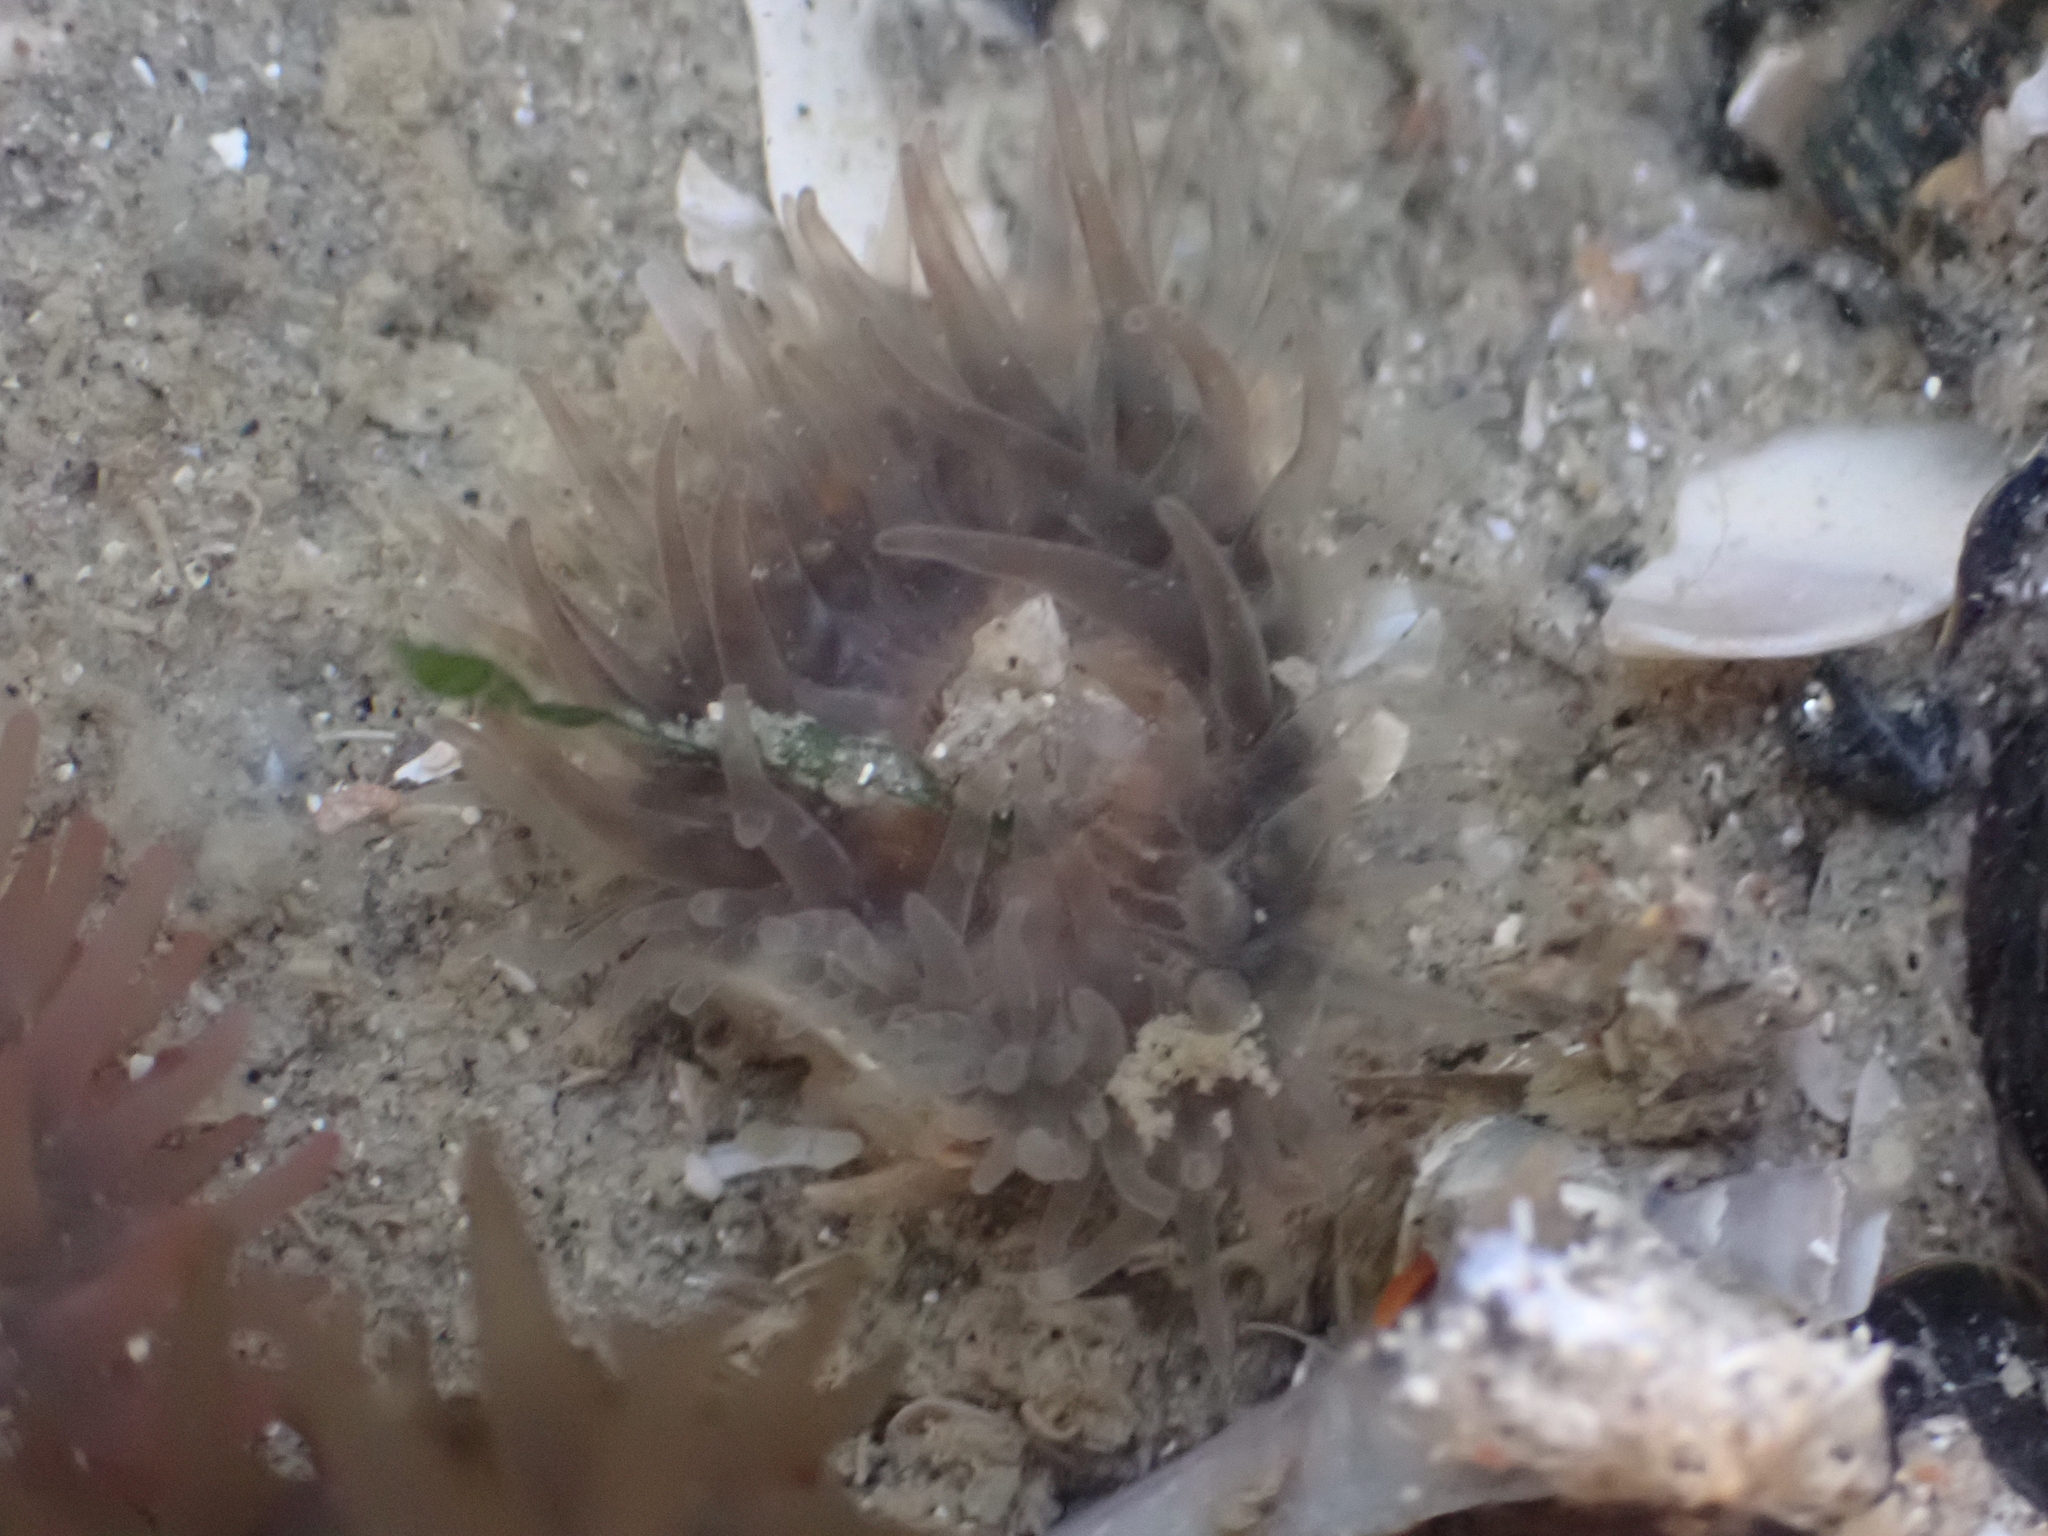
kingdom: Animalia
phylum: Cnidaria
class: Anthozoa
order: Actiniaria
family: Actiniidae
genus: Actinia
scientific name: Actinia equina
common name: Beadlet anemone
